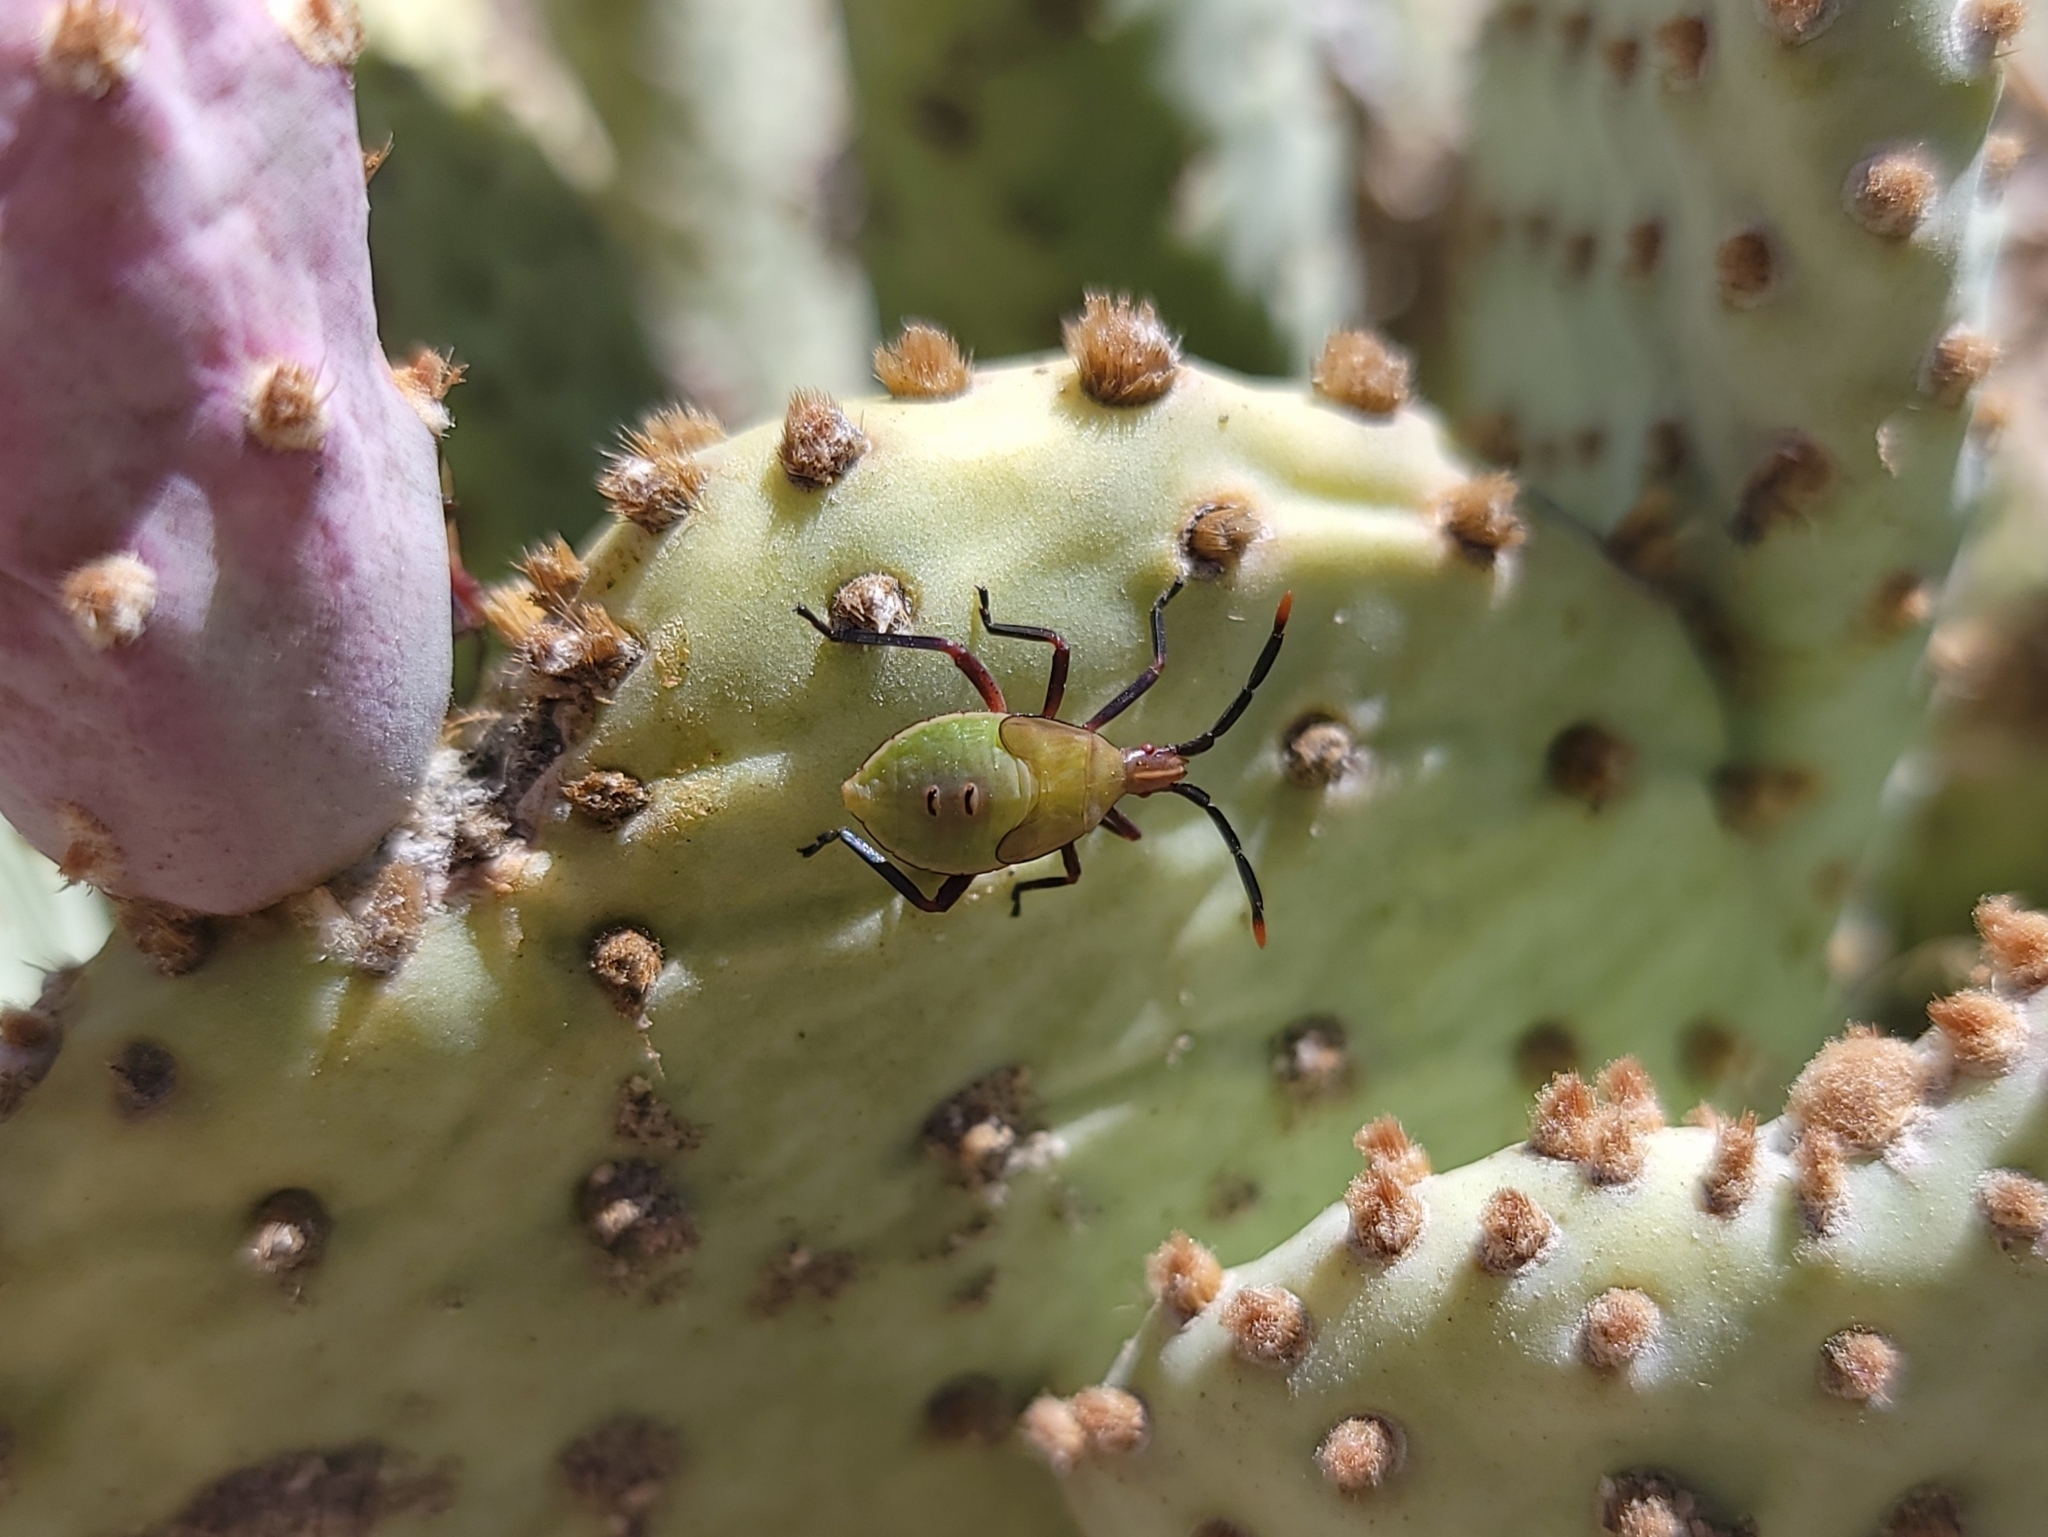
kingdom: Animalia
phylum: Arthropoda
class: Insecta
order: Hemiptera
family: Coreidae
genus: Chelinidea
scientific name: Chelinidea vittiger
